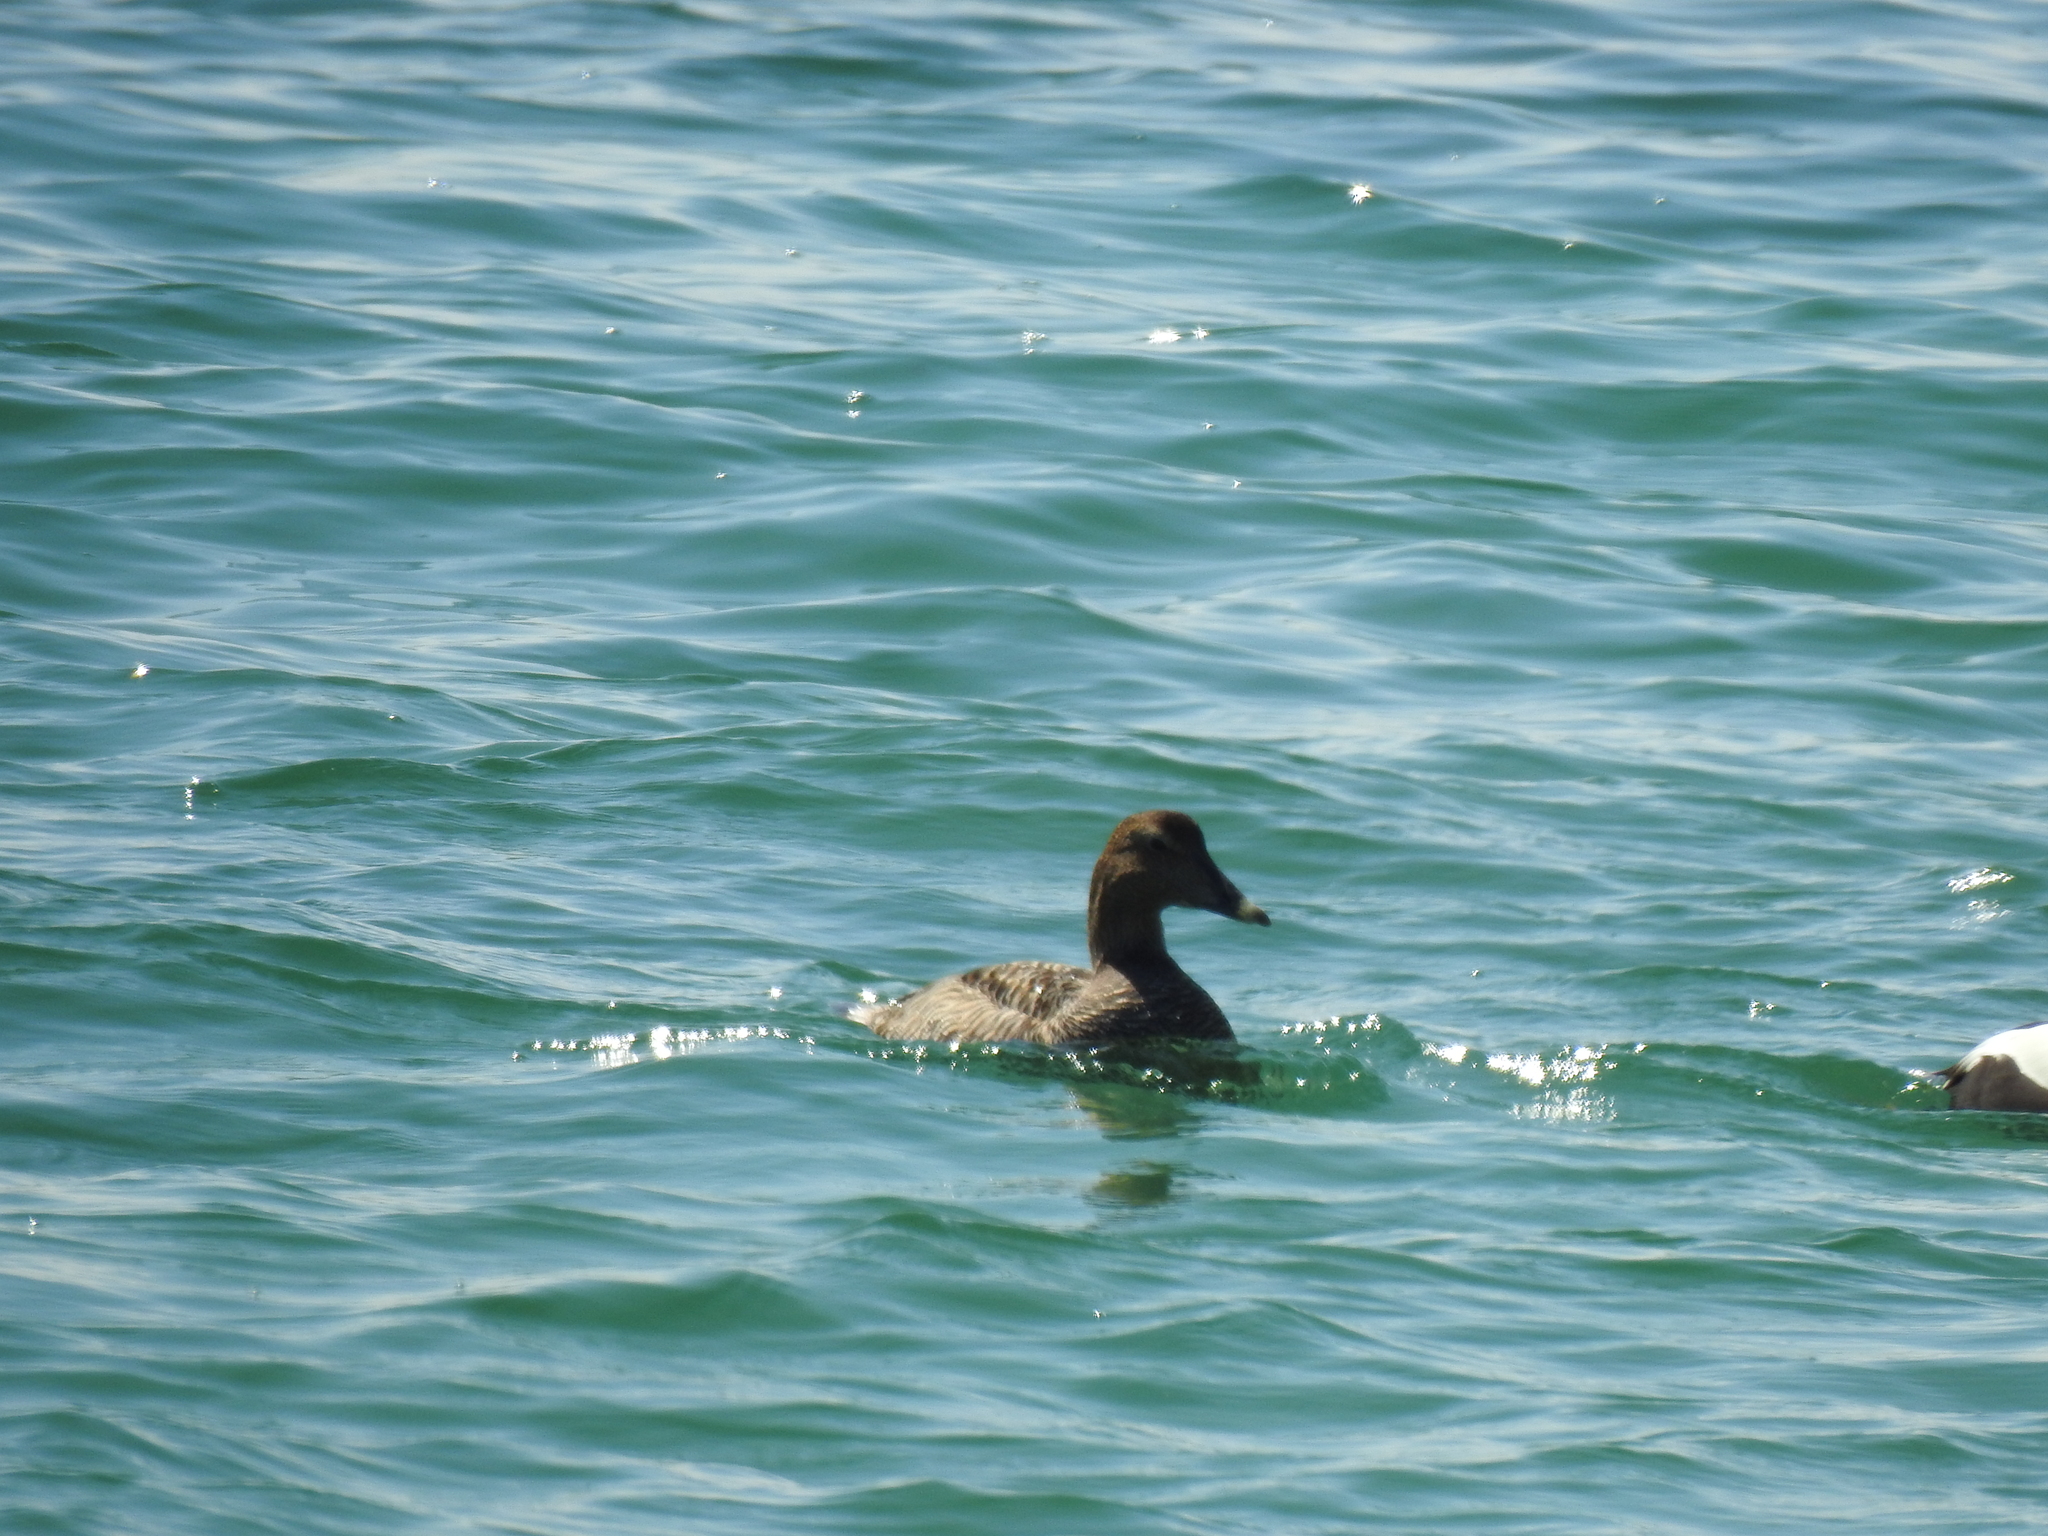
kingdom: Animalia
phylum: Chordata
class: Aves
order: Anseriformes
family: Anatidae
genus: Somateria
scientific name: Somateria mollissima
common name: Common eider
